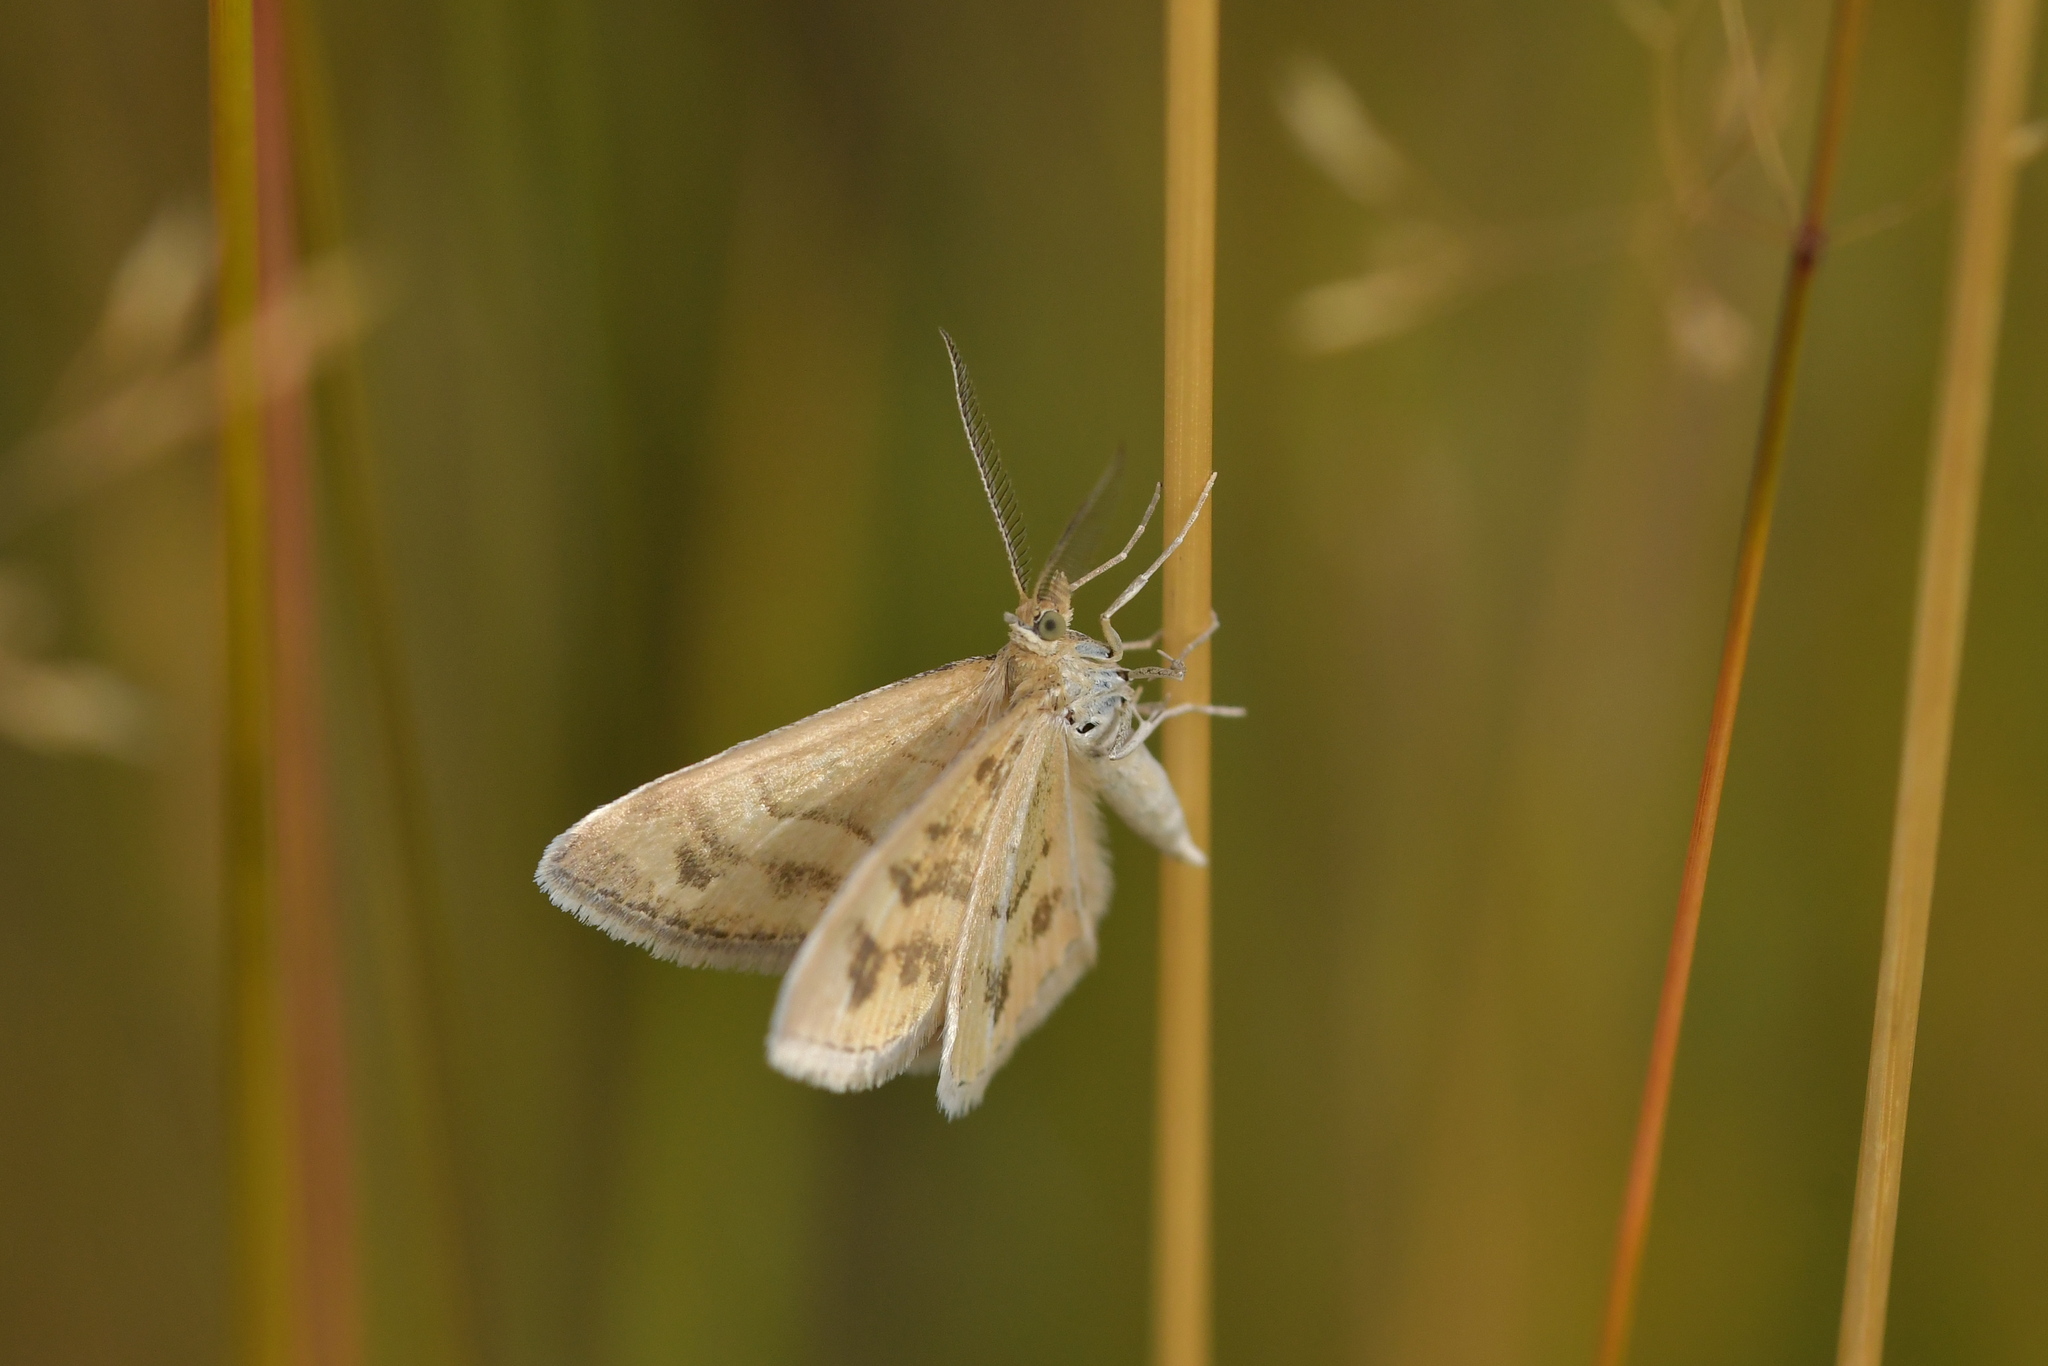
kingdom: Animalia
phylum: Arthropoda
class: Insecta
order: Lepidoptera
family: Geometridae
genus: Asaphodes
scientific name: Asaphodes abrogata
